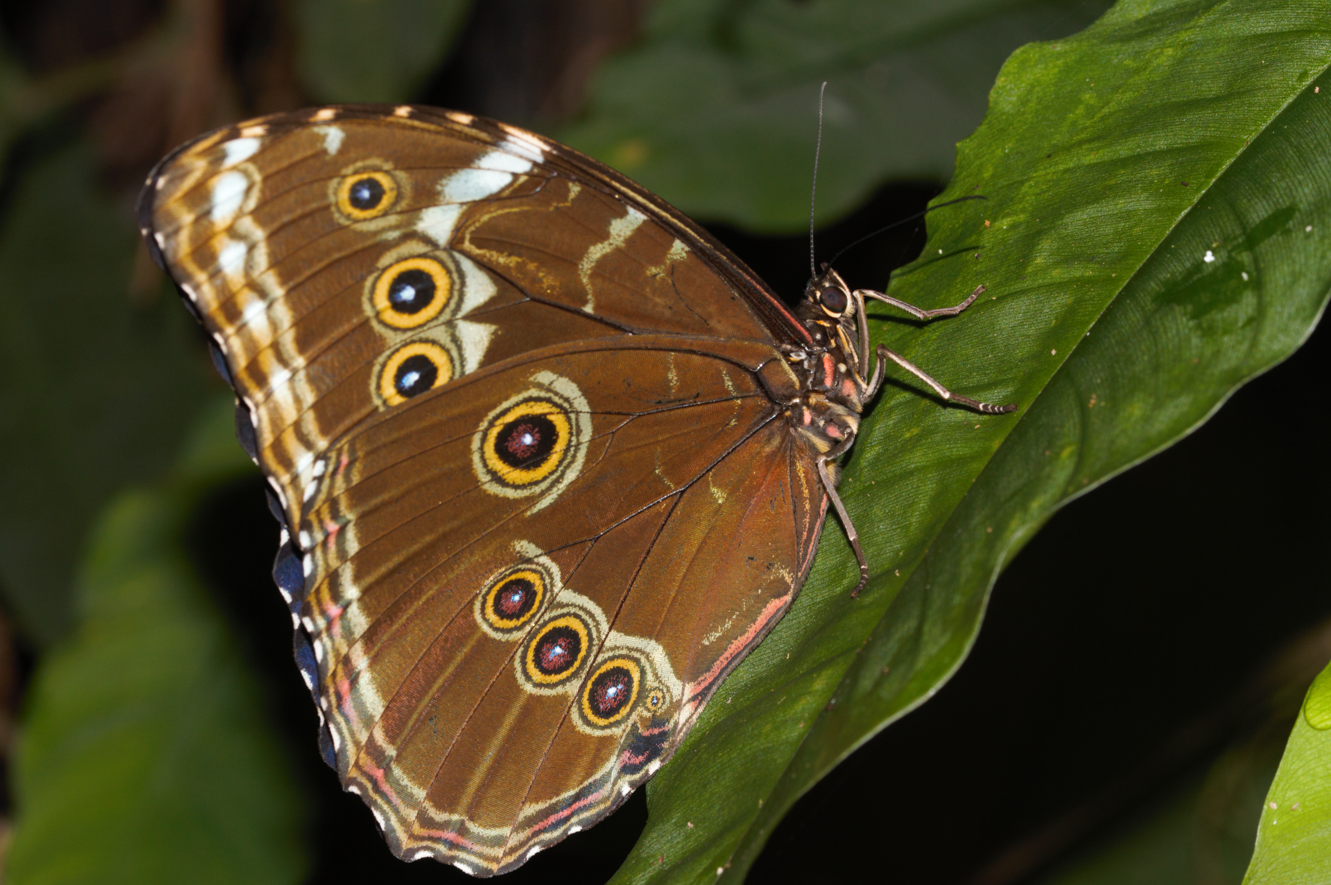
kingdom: Animalia
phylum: Arthropoda
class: Insecta
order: Lepidoptera
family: Nymphalidae
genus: Morpho
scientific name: Morpho achilles
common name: Achilles morpho
